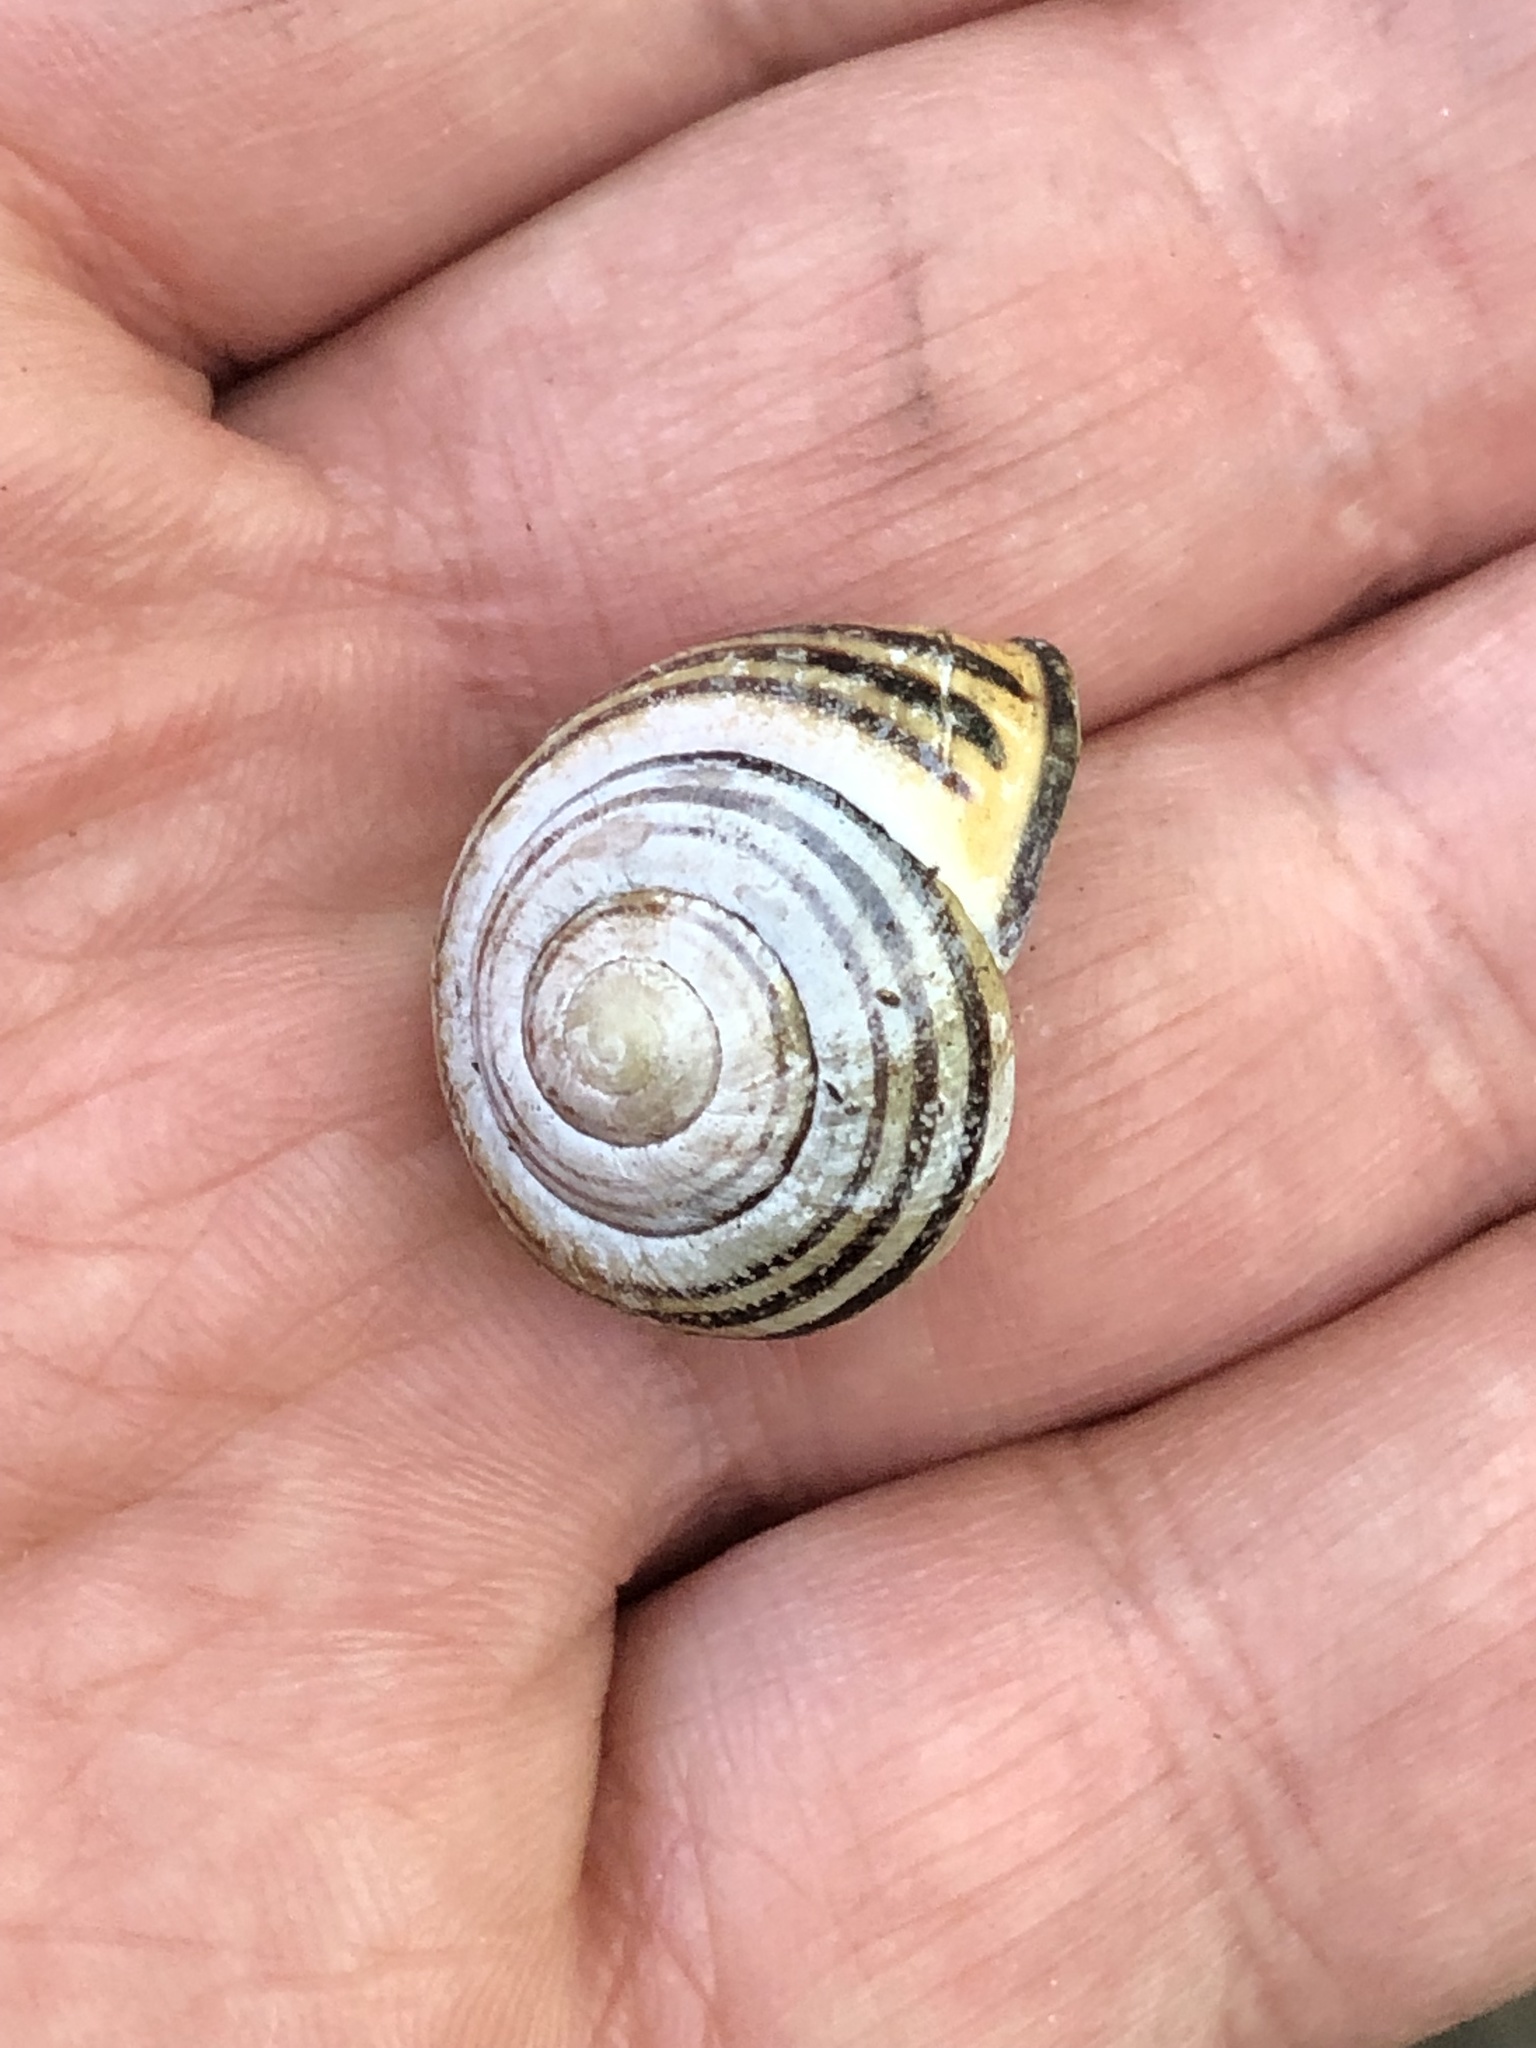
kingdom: Animalia
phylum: Mollusca
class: Gastropoda
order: Stylommatophora
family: Helicidae
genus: Cepaea
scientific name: Cepaea nemoralis
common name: Grovesnail
